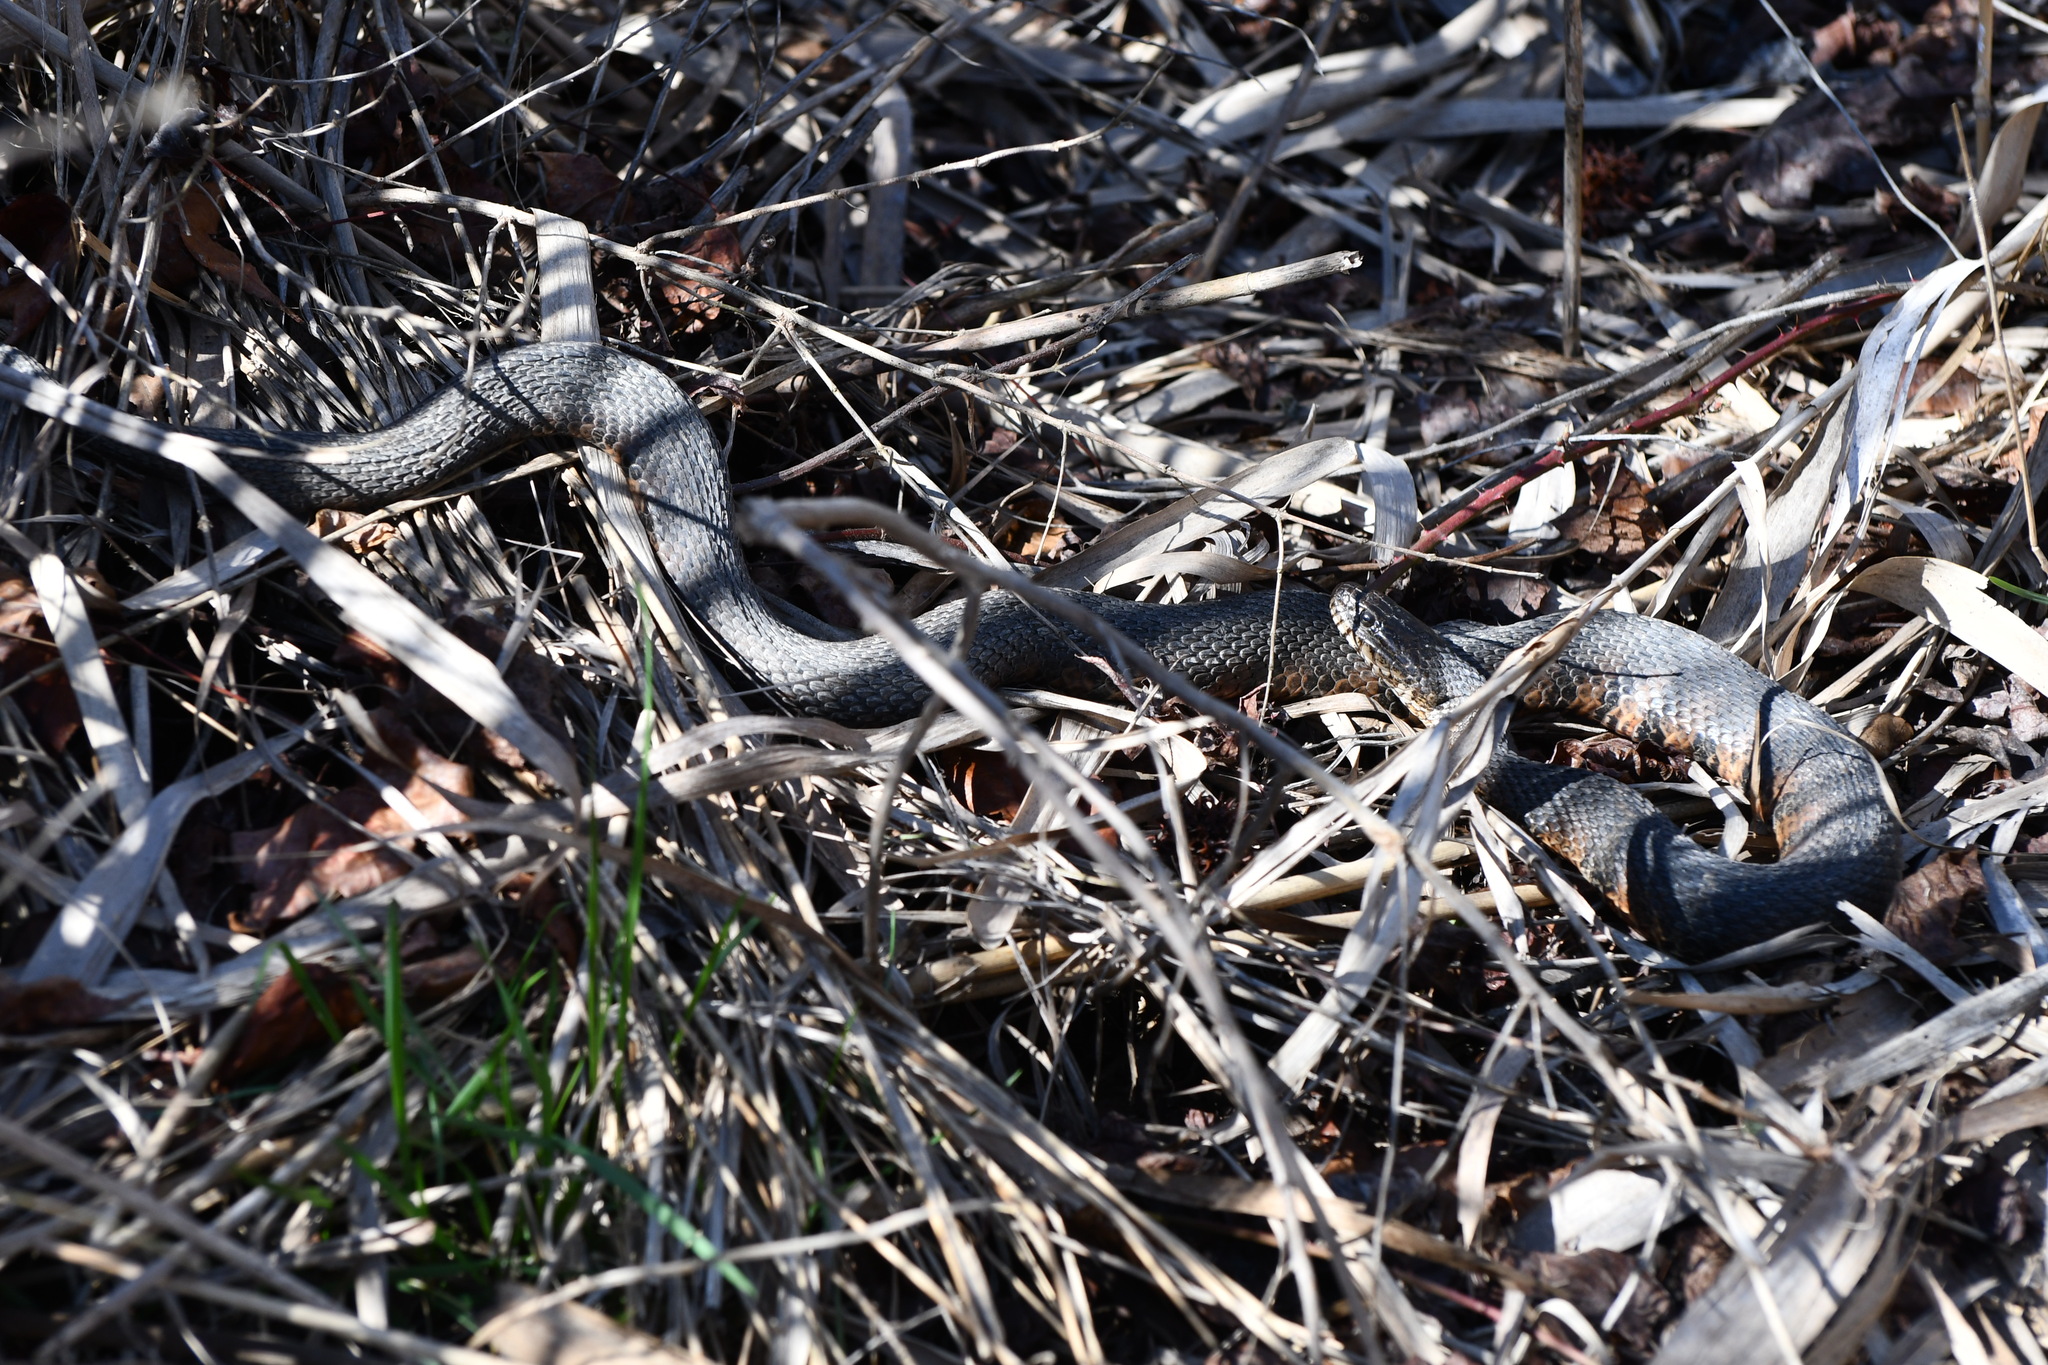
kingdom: Animalia
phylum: Chordata
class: Squamata
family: Colubridae
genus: Nerodia
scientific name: Nerodia sipedon
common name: Northern water snake
